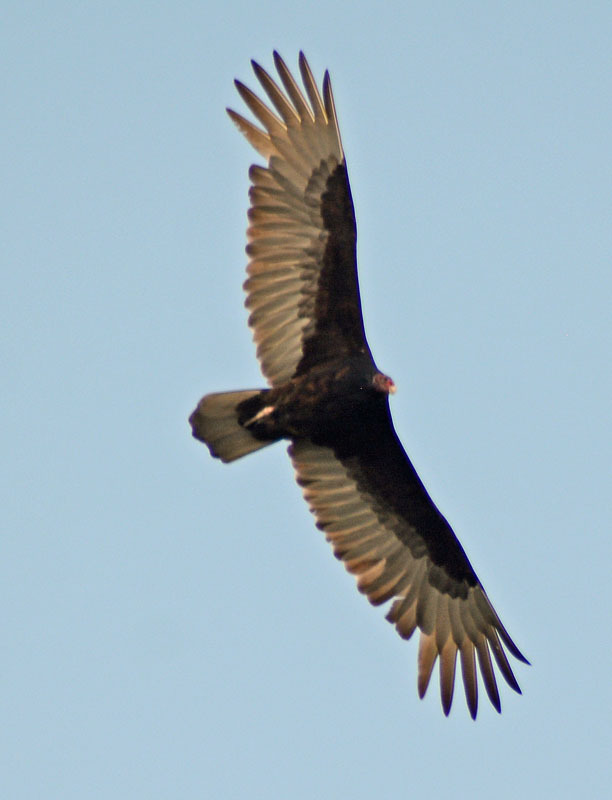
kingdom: Animalia
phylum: Chordata
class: Aves
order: Accipitriformes
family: Cathartidae
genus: Cathartes
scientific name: Cathartes aura
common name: Turkey vulture
